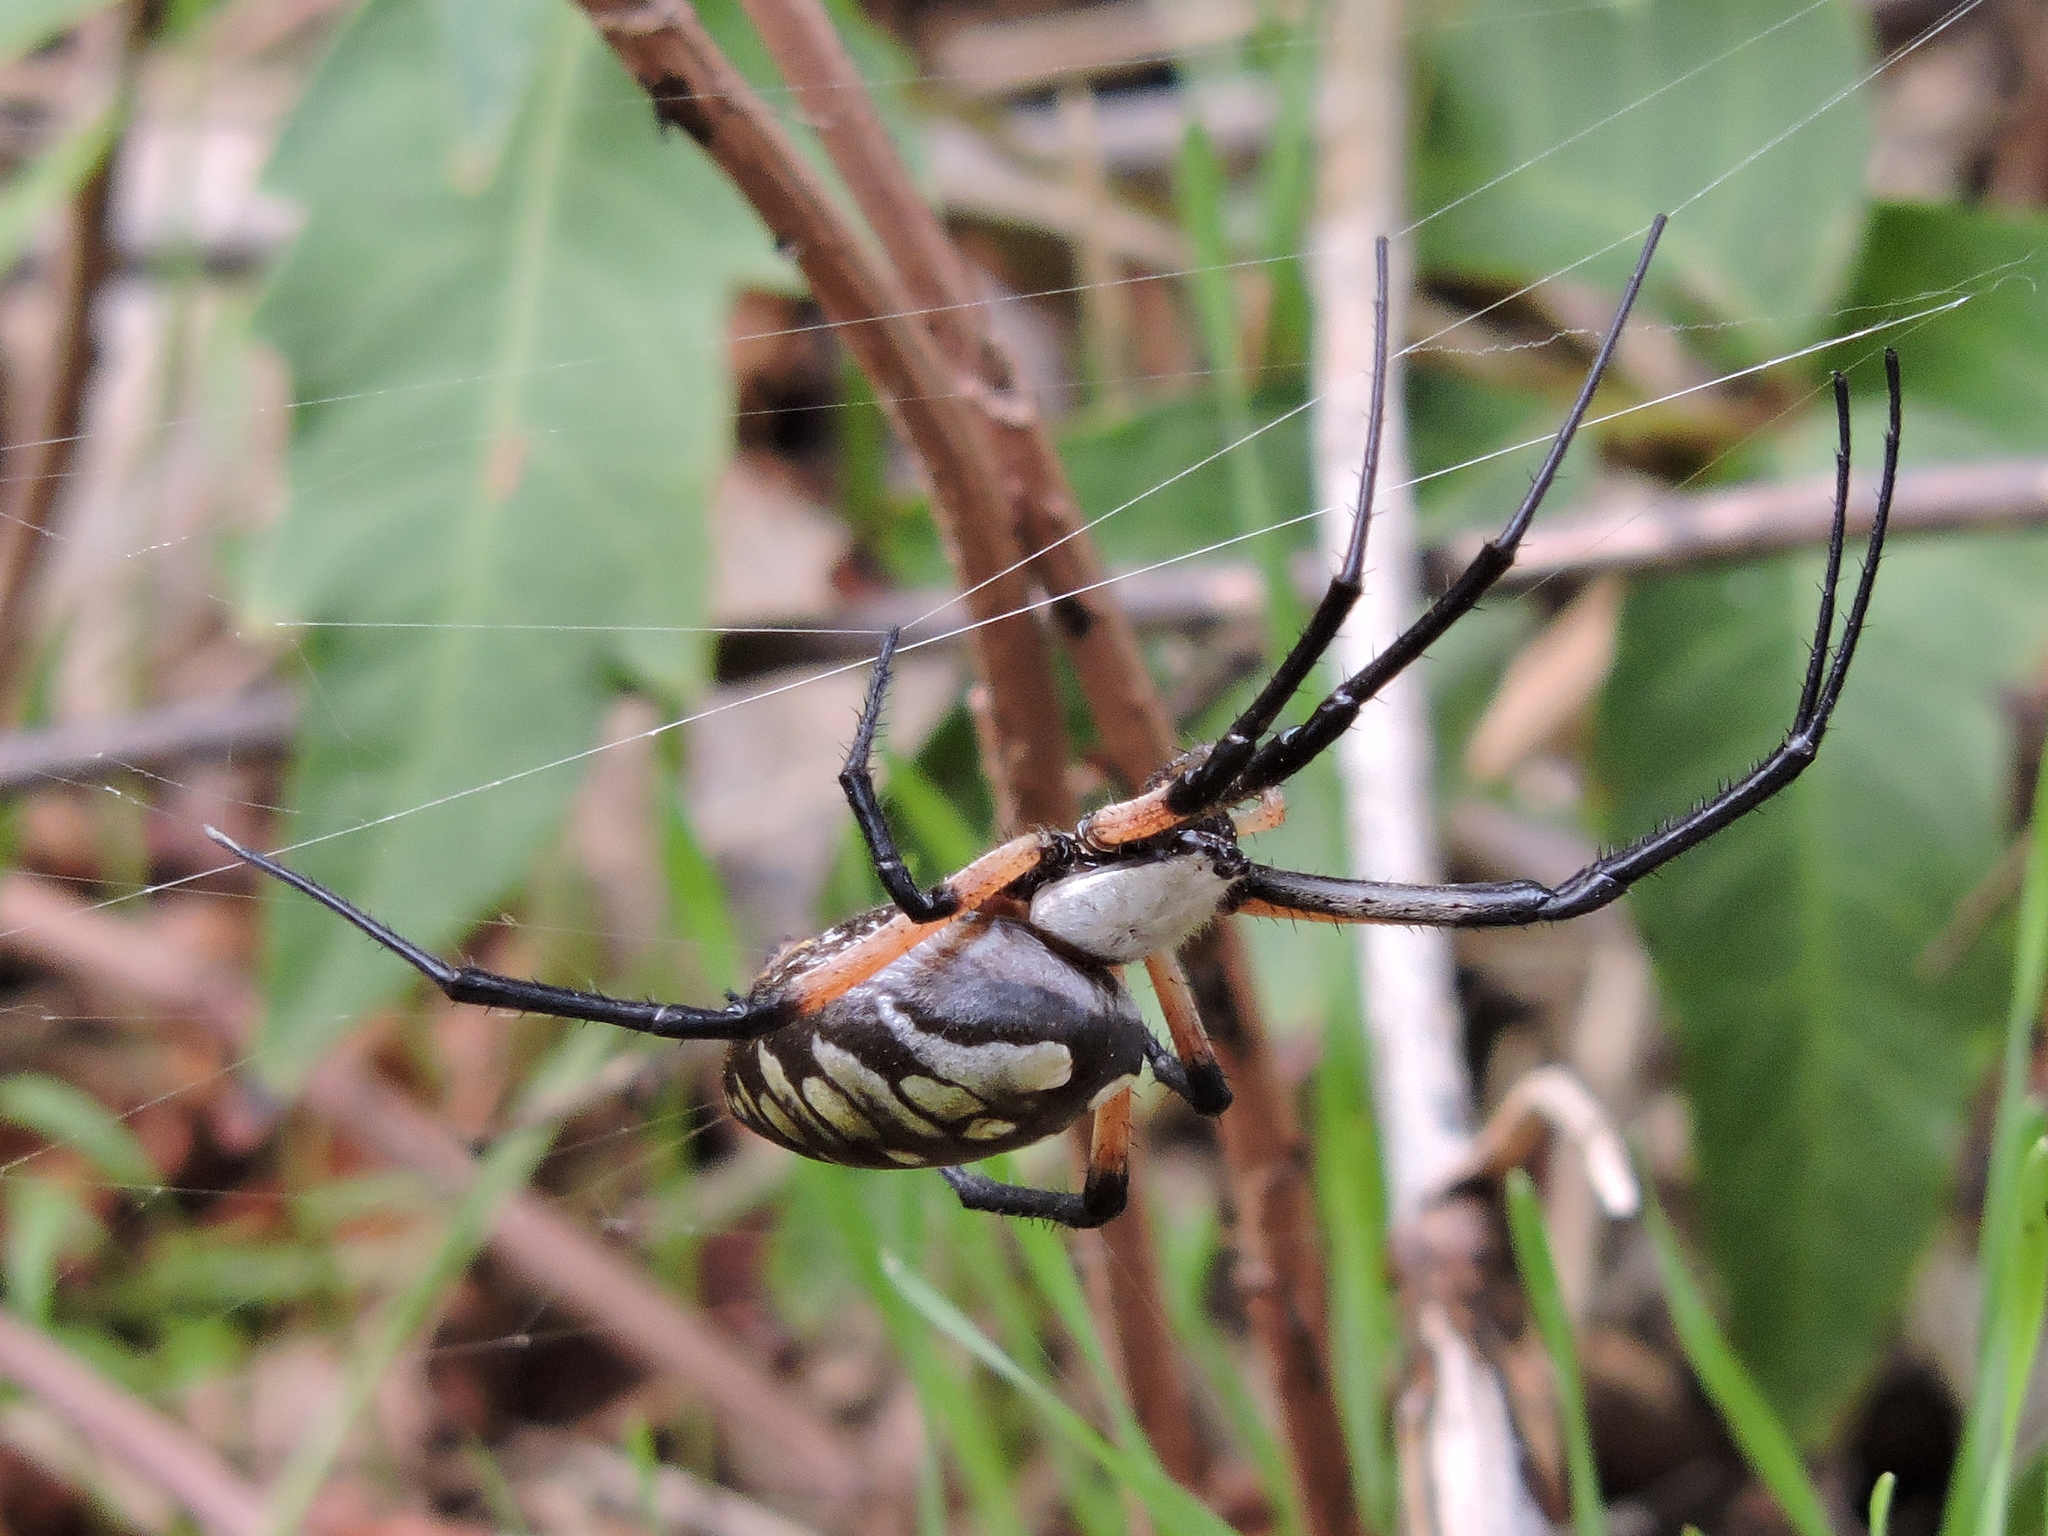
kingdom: Animalia
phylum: Arthropoda
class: Arachnida
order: Araneae
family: Araneidae
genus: Argiope
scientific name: Argiope aurantia
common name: Orb weavers
